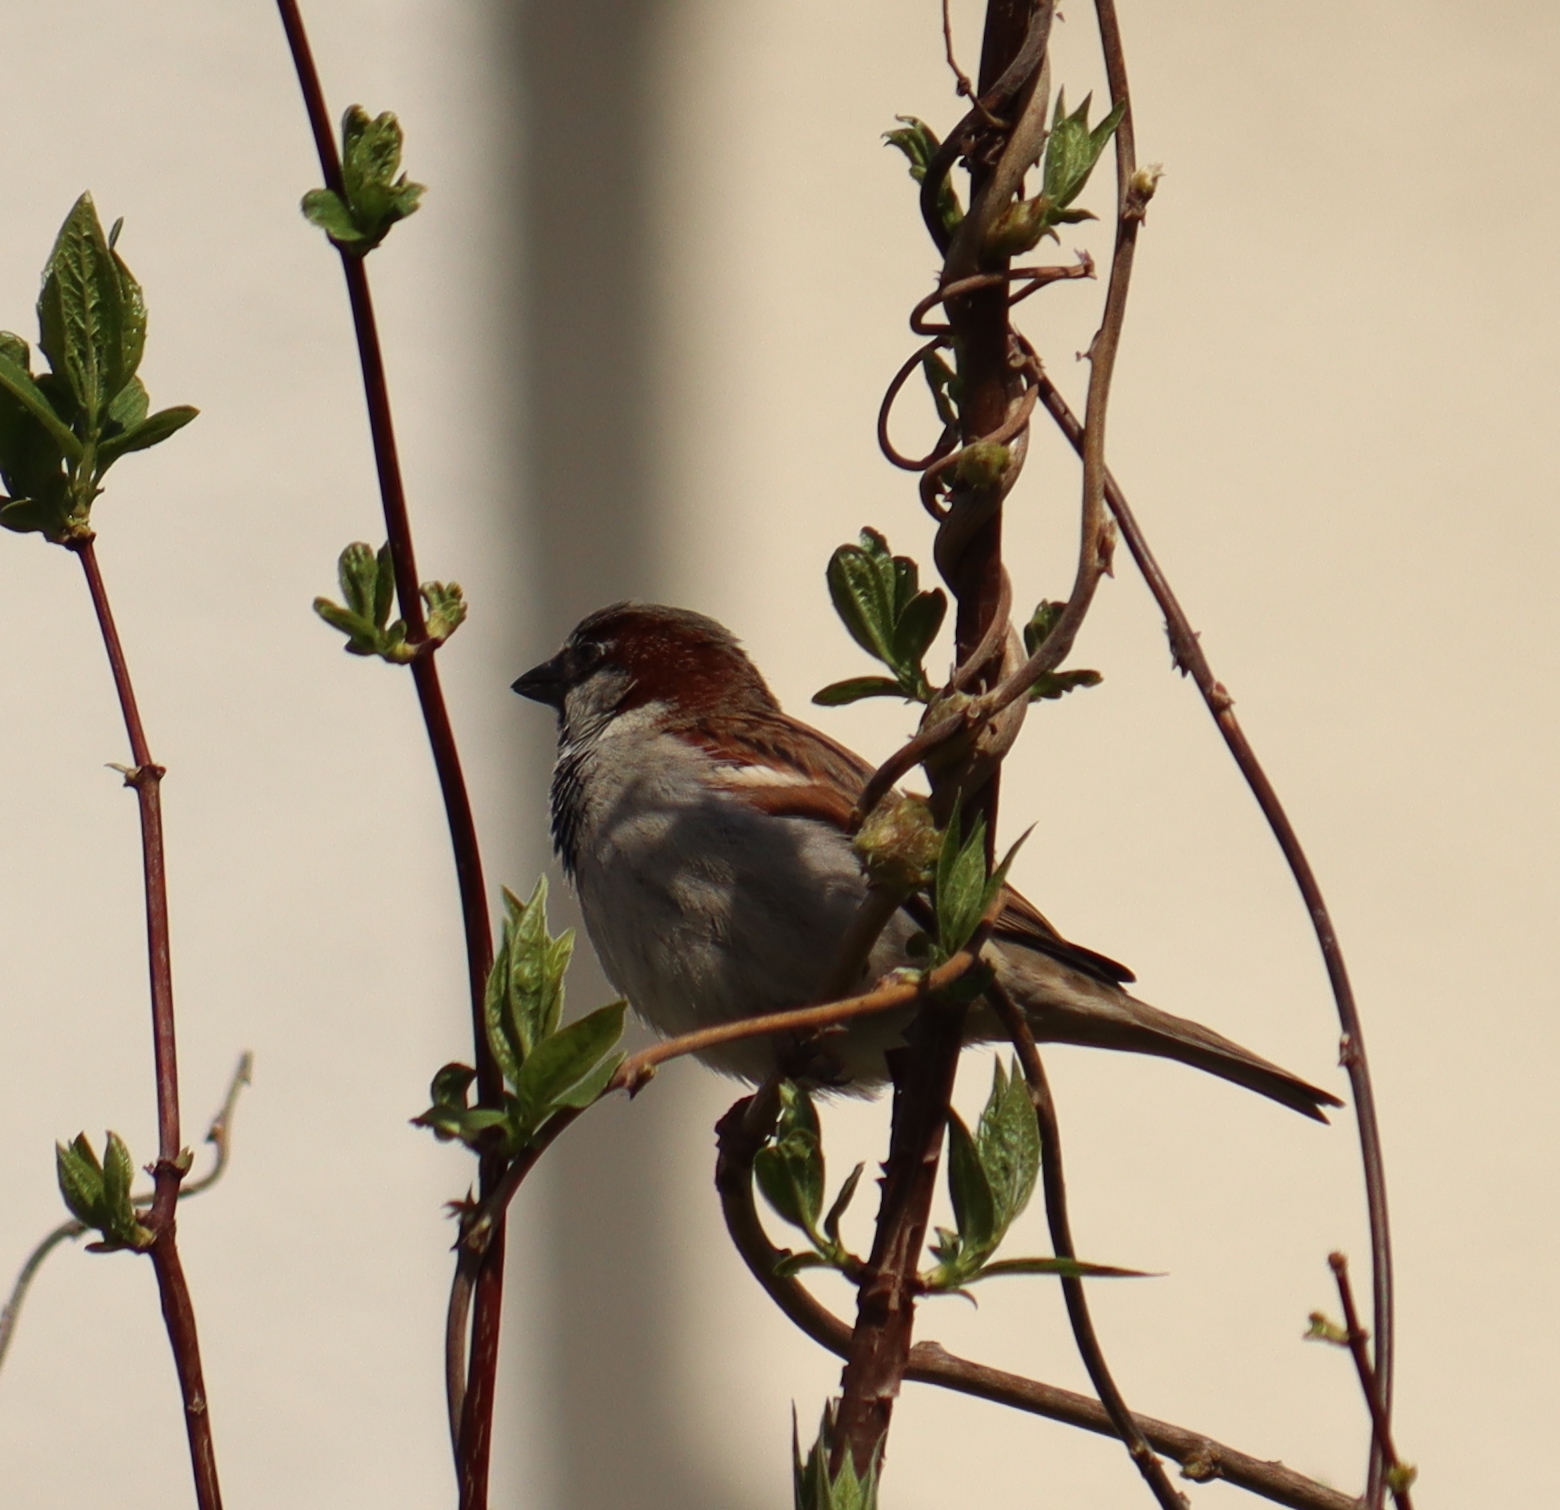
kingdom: Animalia
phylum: Chordata
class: Aves
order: Passeriformes
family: Passeridae
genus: Passer
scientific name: Passer domesticus
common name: House sparrow
